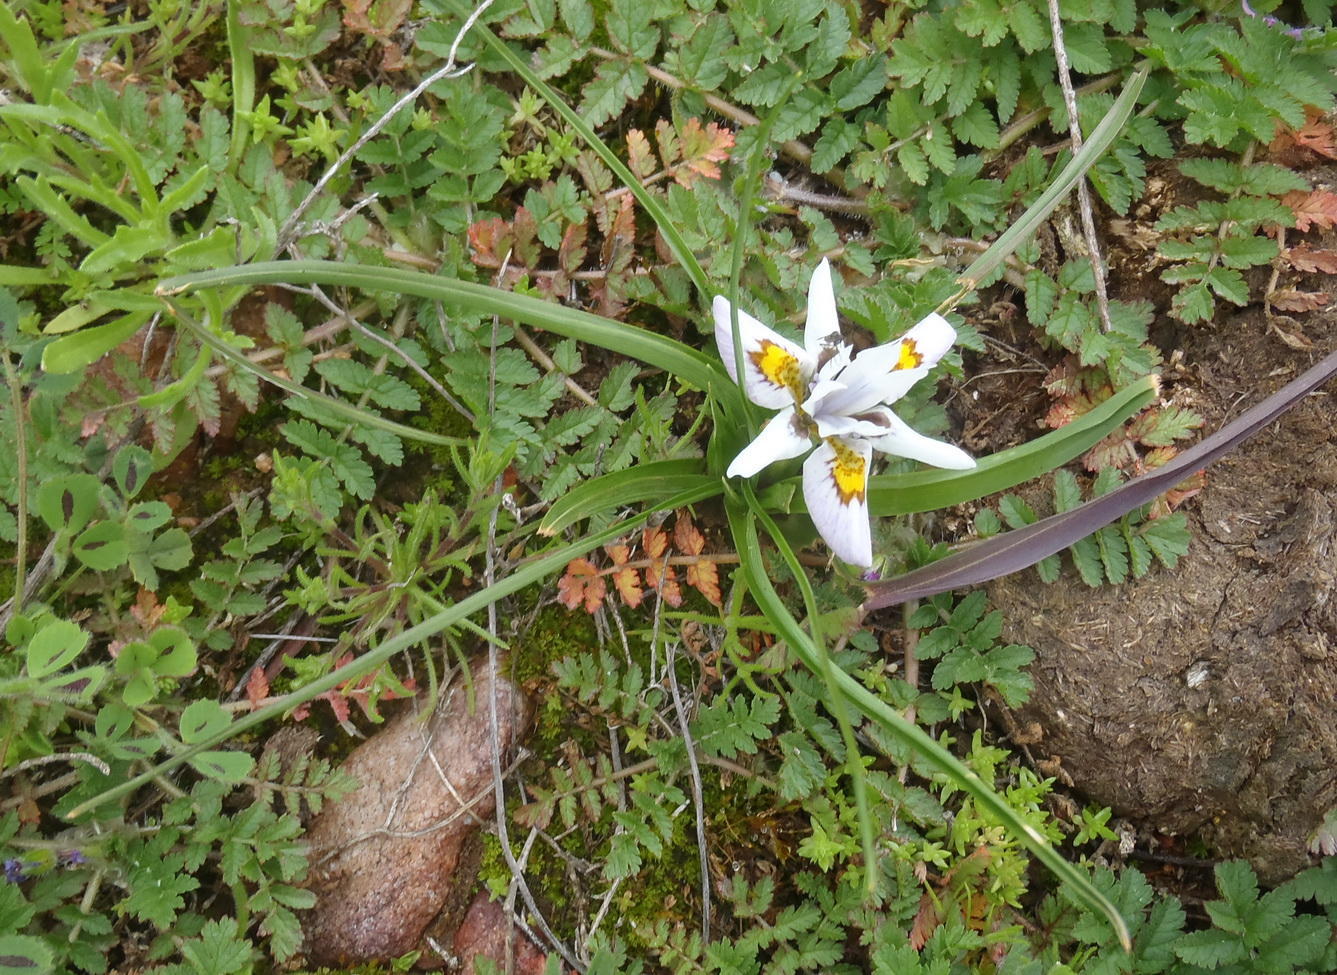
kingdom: Plantae
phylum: Tracheophyta
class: Liliopsida
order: Asparagales
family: Iridaceae
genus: Moraea
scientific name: Moraea falcifolia
